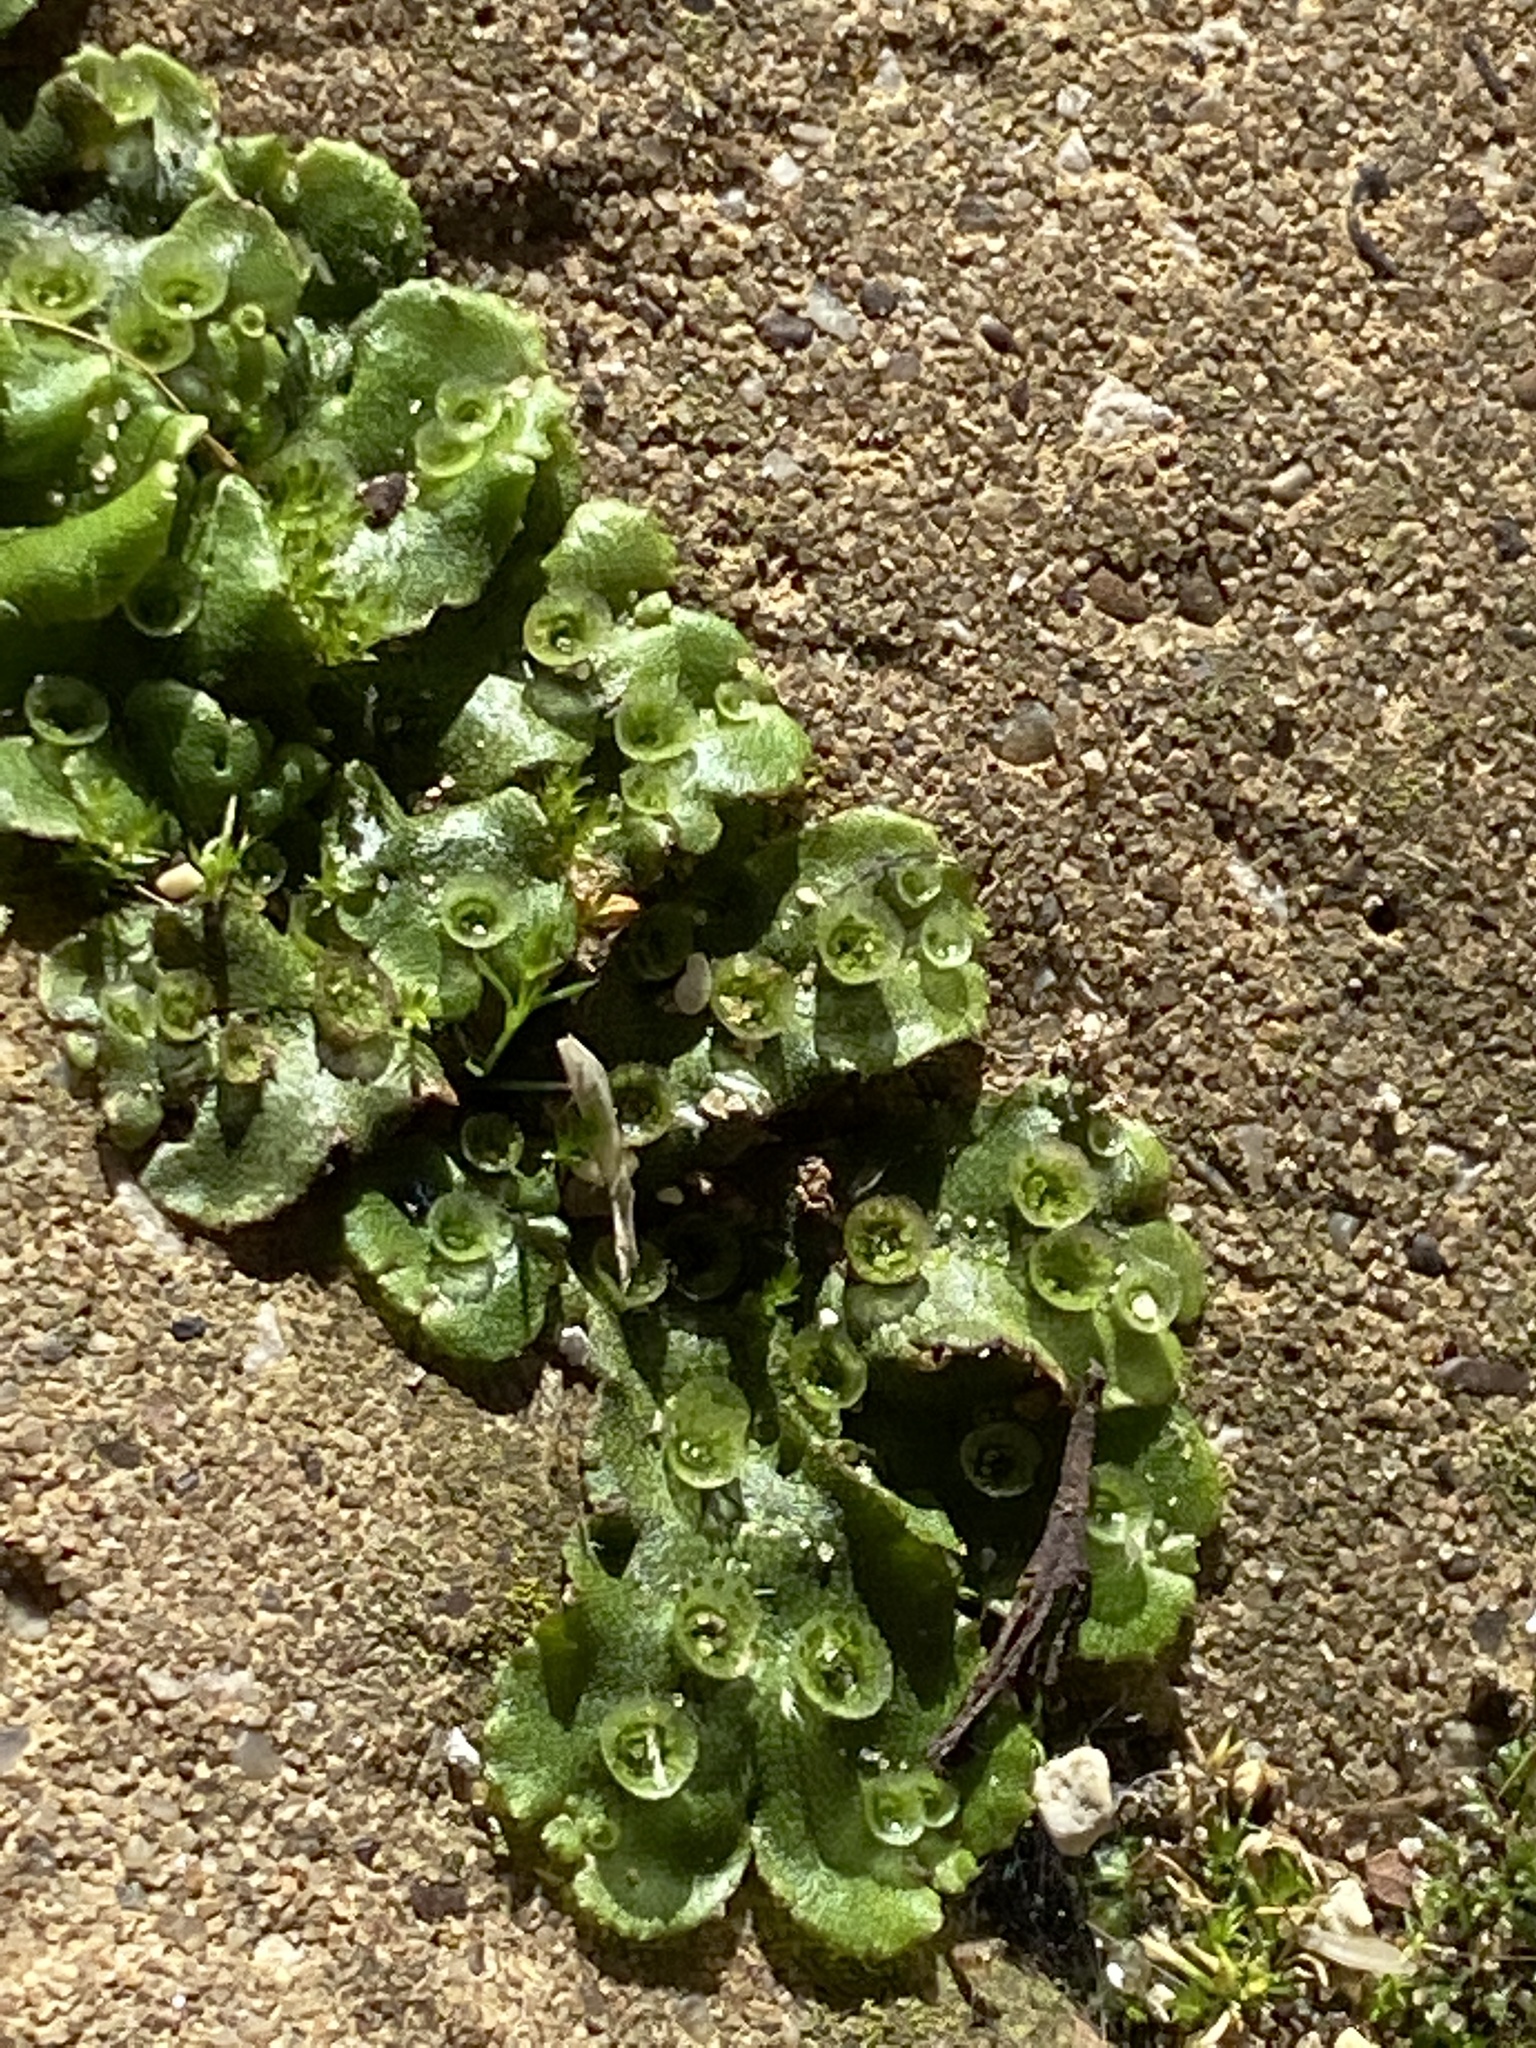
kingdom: Plantae
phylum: Marchantiophyta
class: Marchantiopsida
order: Marchantiales
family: Marchantiaceae
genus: Marchantia
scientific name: Marchantia polymorpha
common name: Common liverwort
